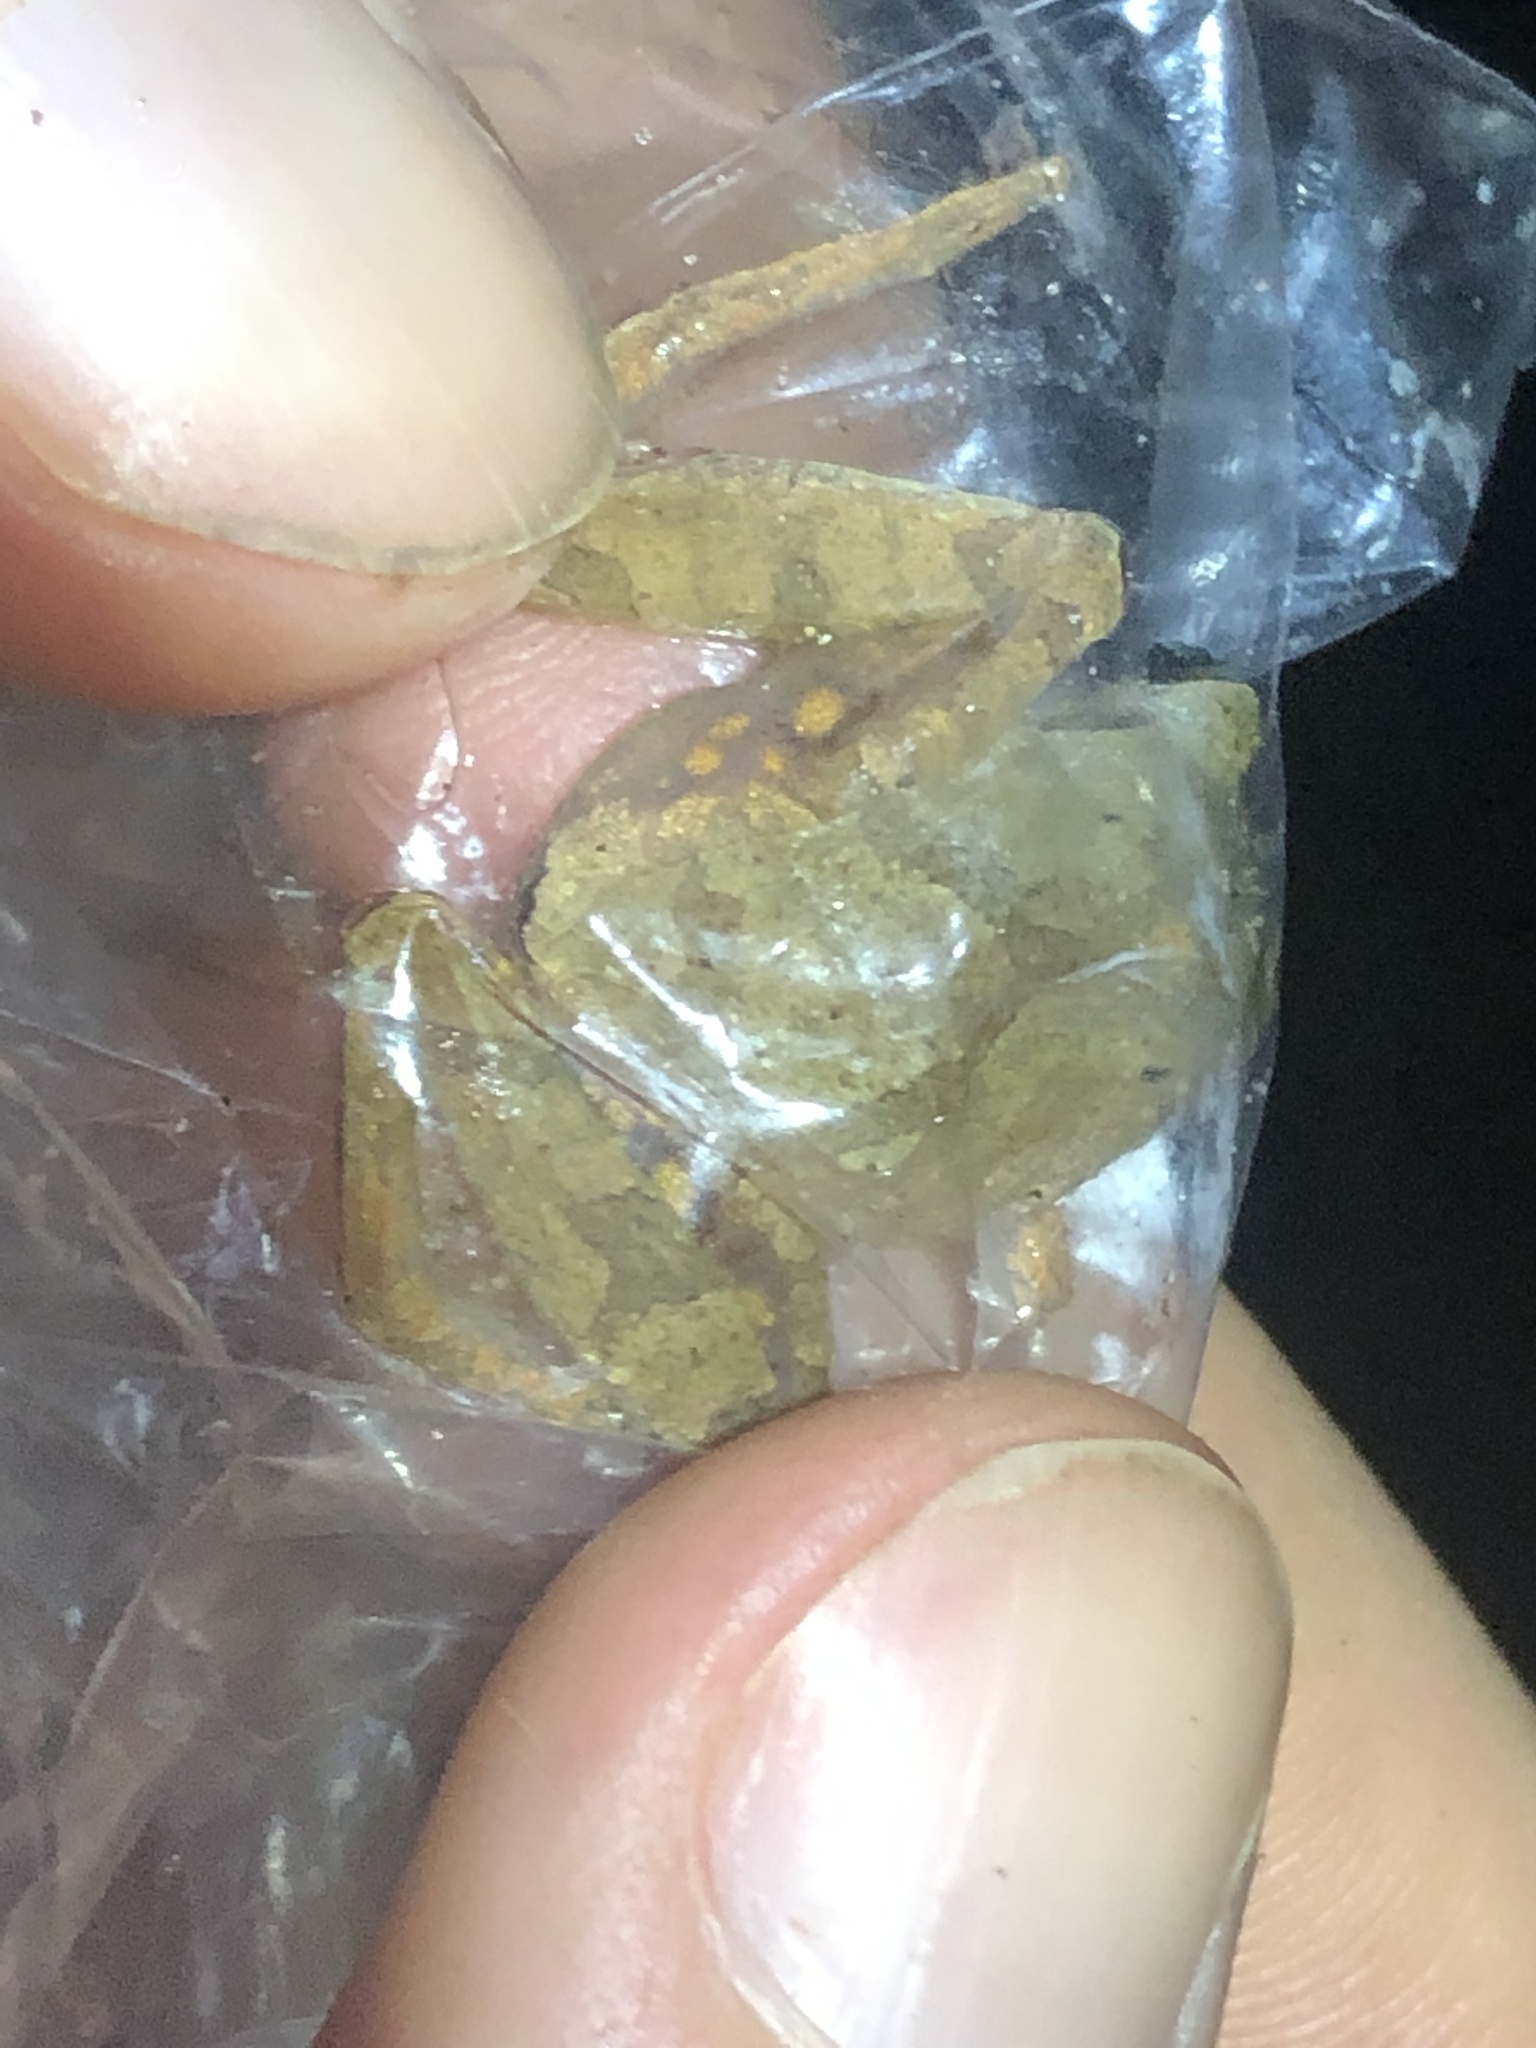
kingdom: Animalia
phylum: Chordata
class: Amphibia
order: Anura
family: Craugastoridae
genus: Pristimantis
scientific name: Pristimantis reichlei
